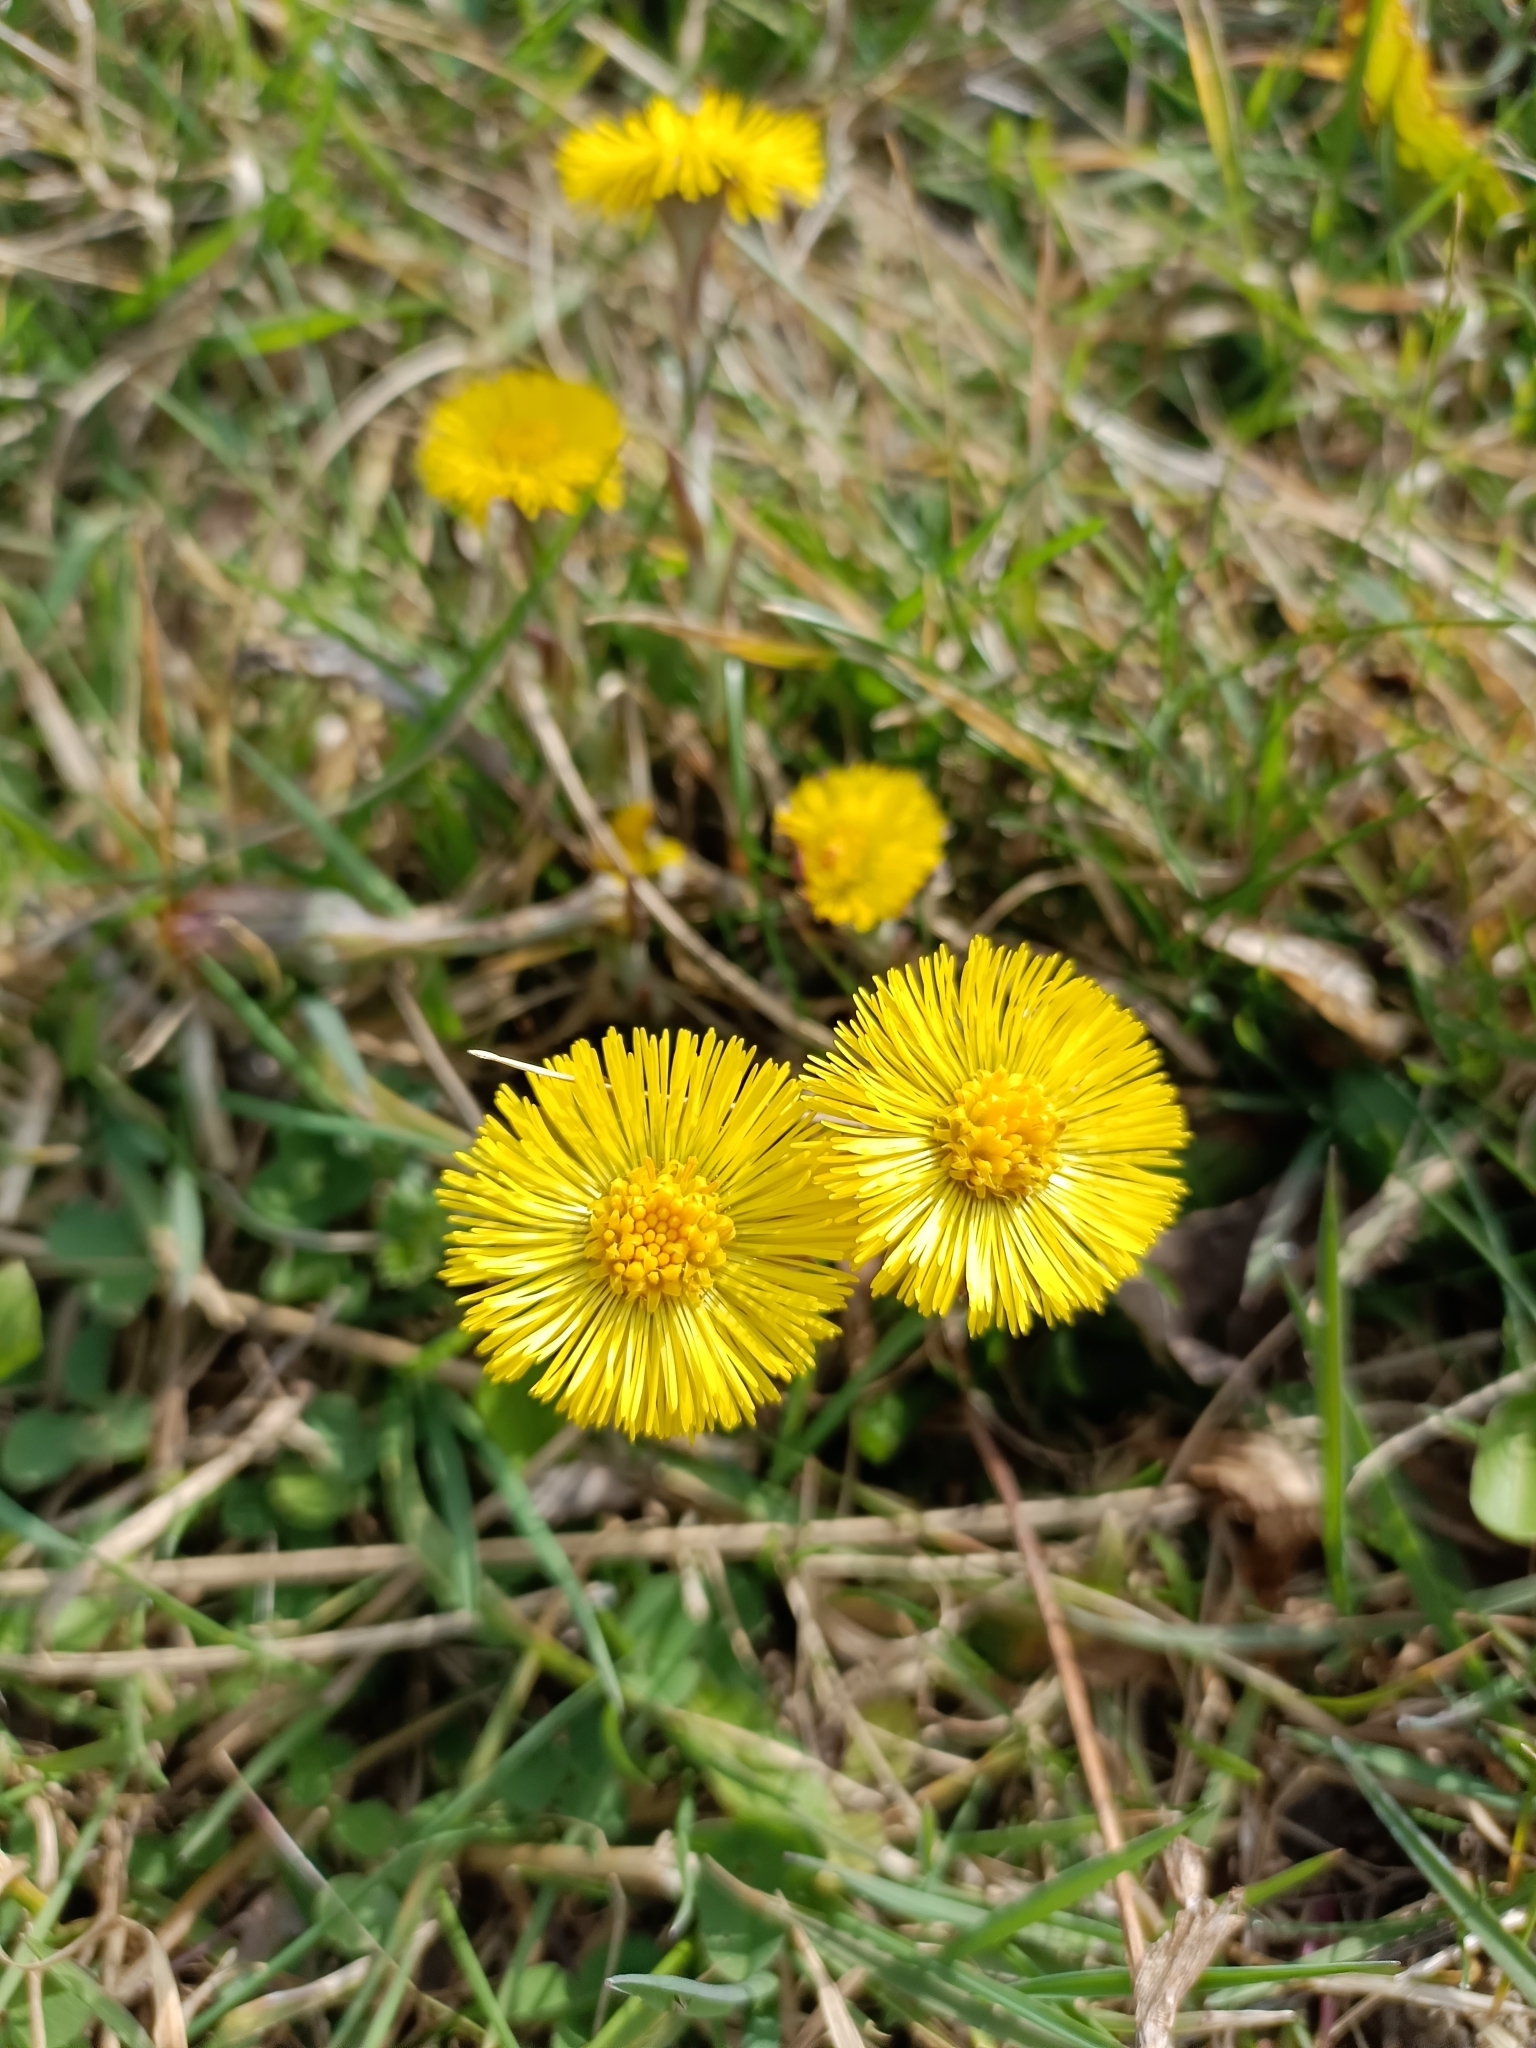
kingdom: Plantae
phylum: Tracheophyta
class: Magnoliopsida
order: Asterales
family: Asteraceae
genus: Tussilago
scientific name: Tussilago farfara
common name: Coltsfoot
